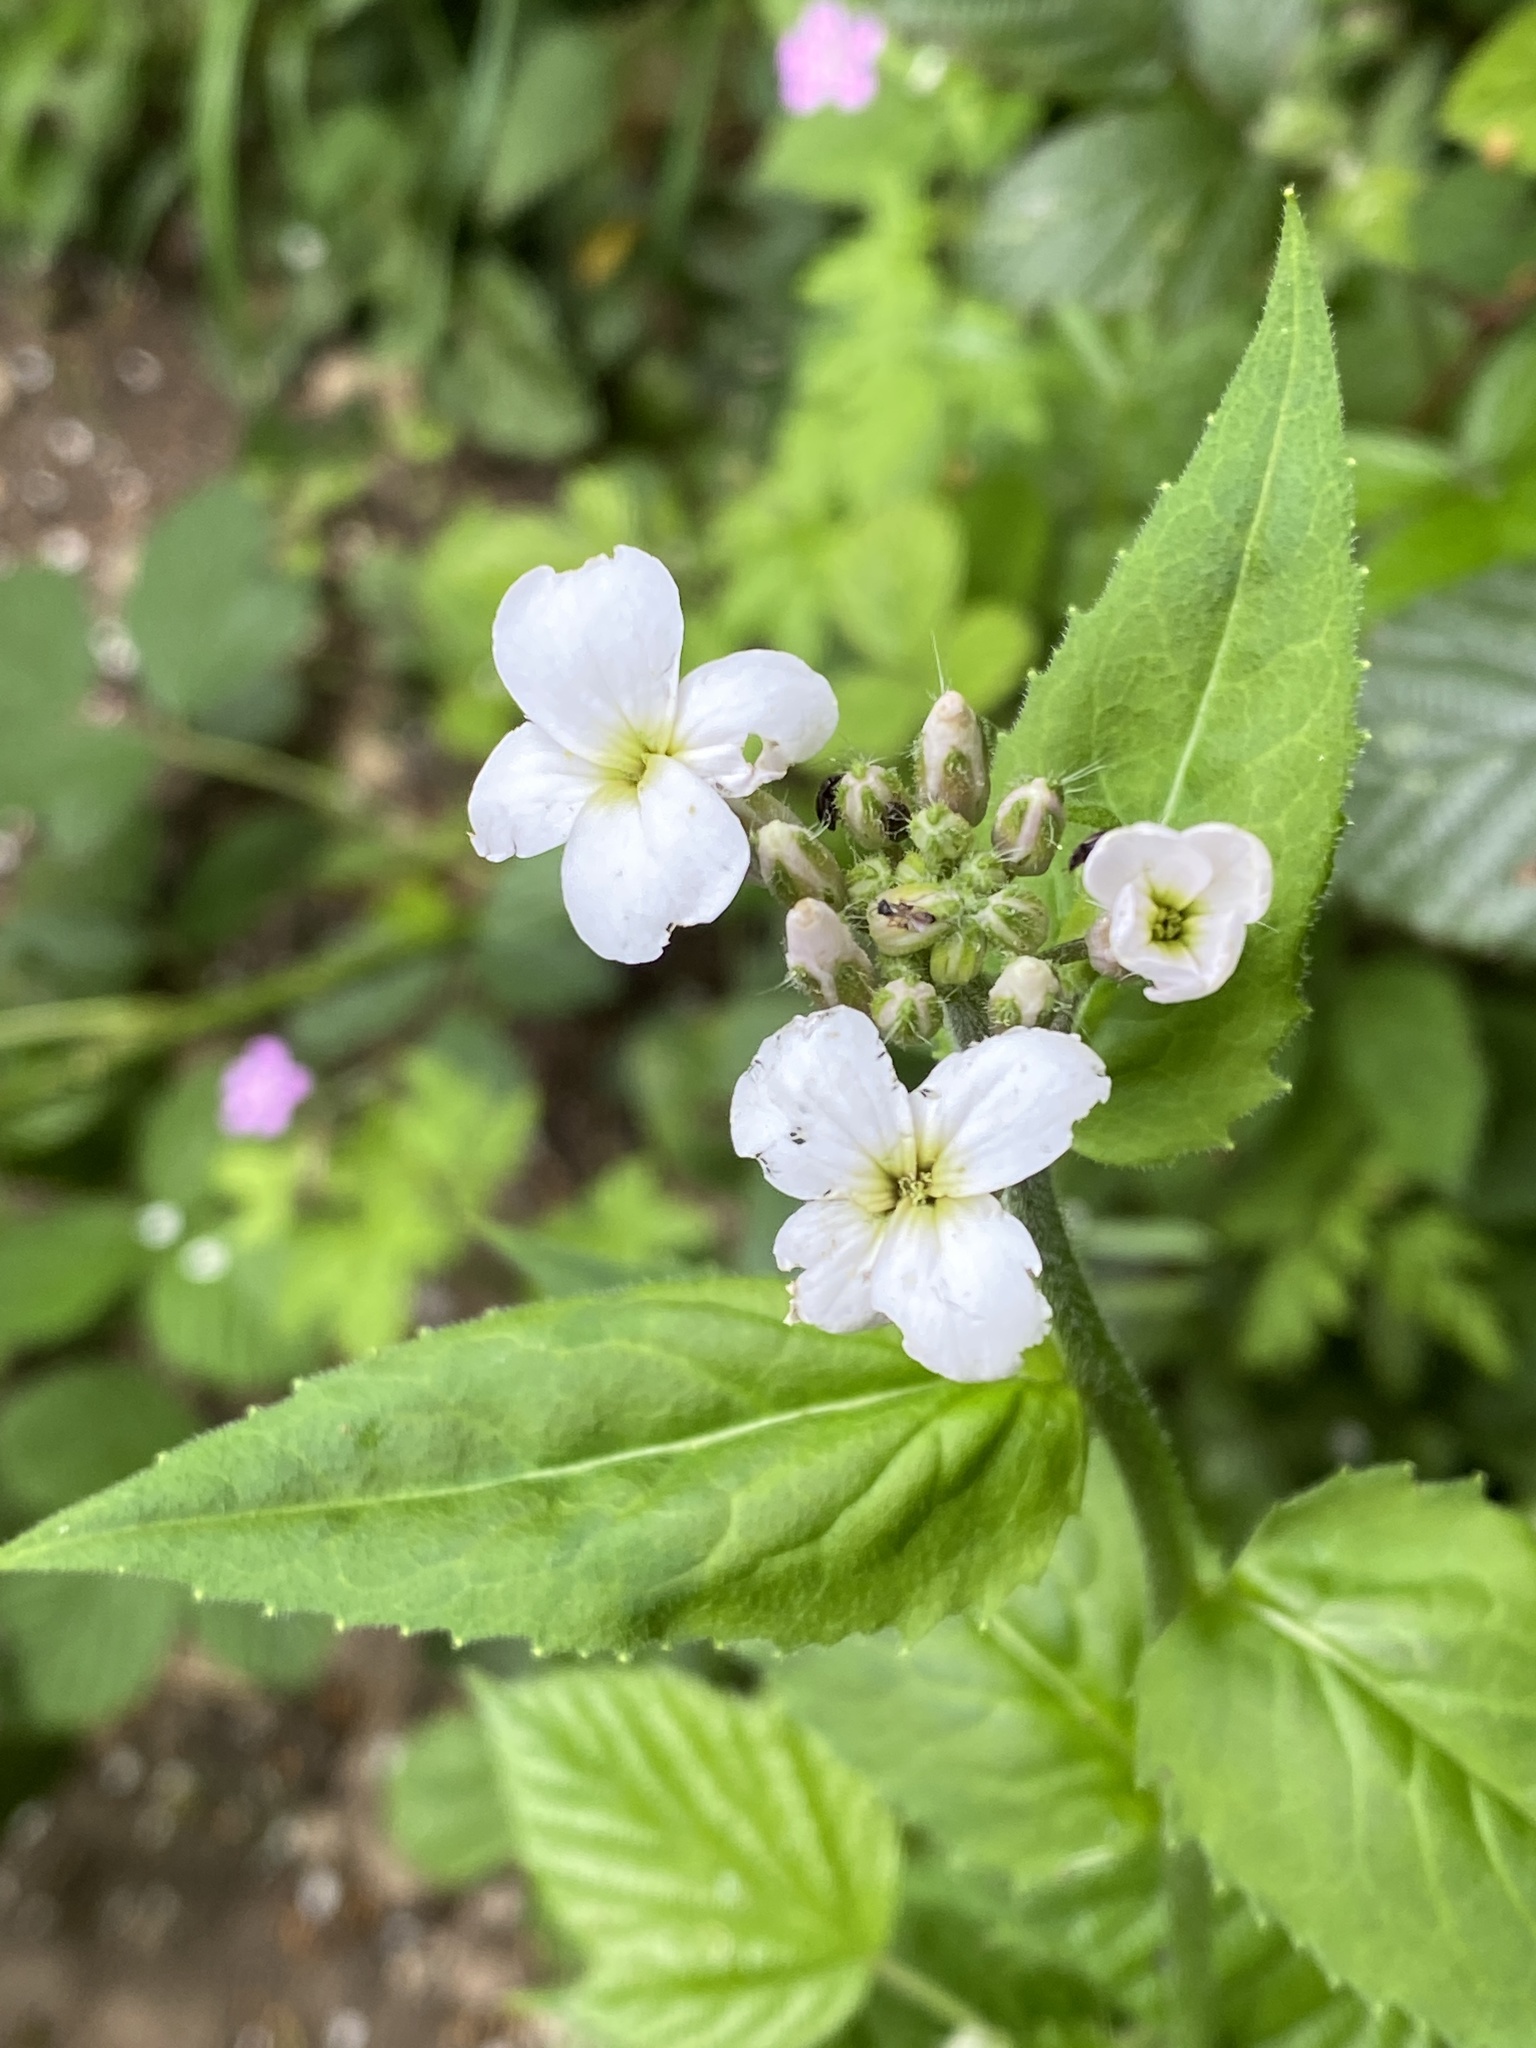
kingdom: Plantae
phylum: Tracheophyta
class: Magnoliopsida
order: Brassicales
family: Brassicaceae
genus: Hesperis
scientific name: Hesperis matronalis
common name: Dame's-violet
